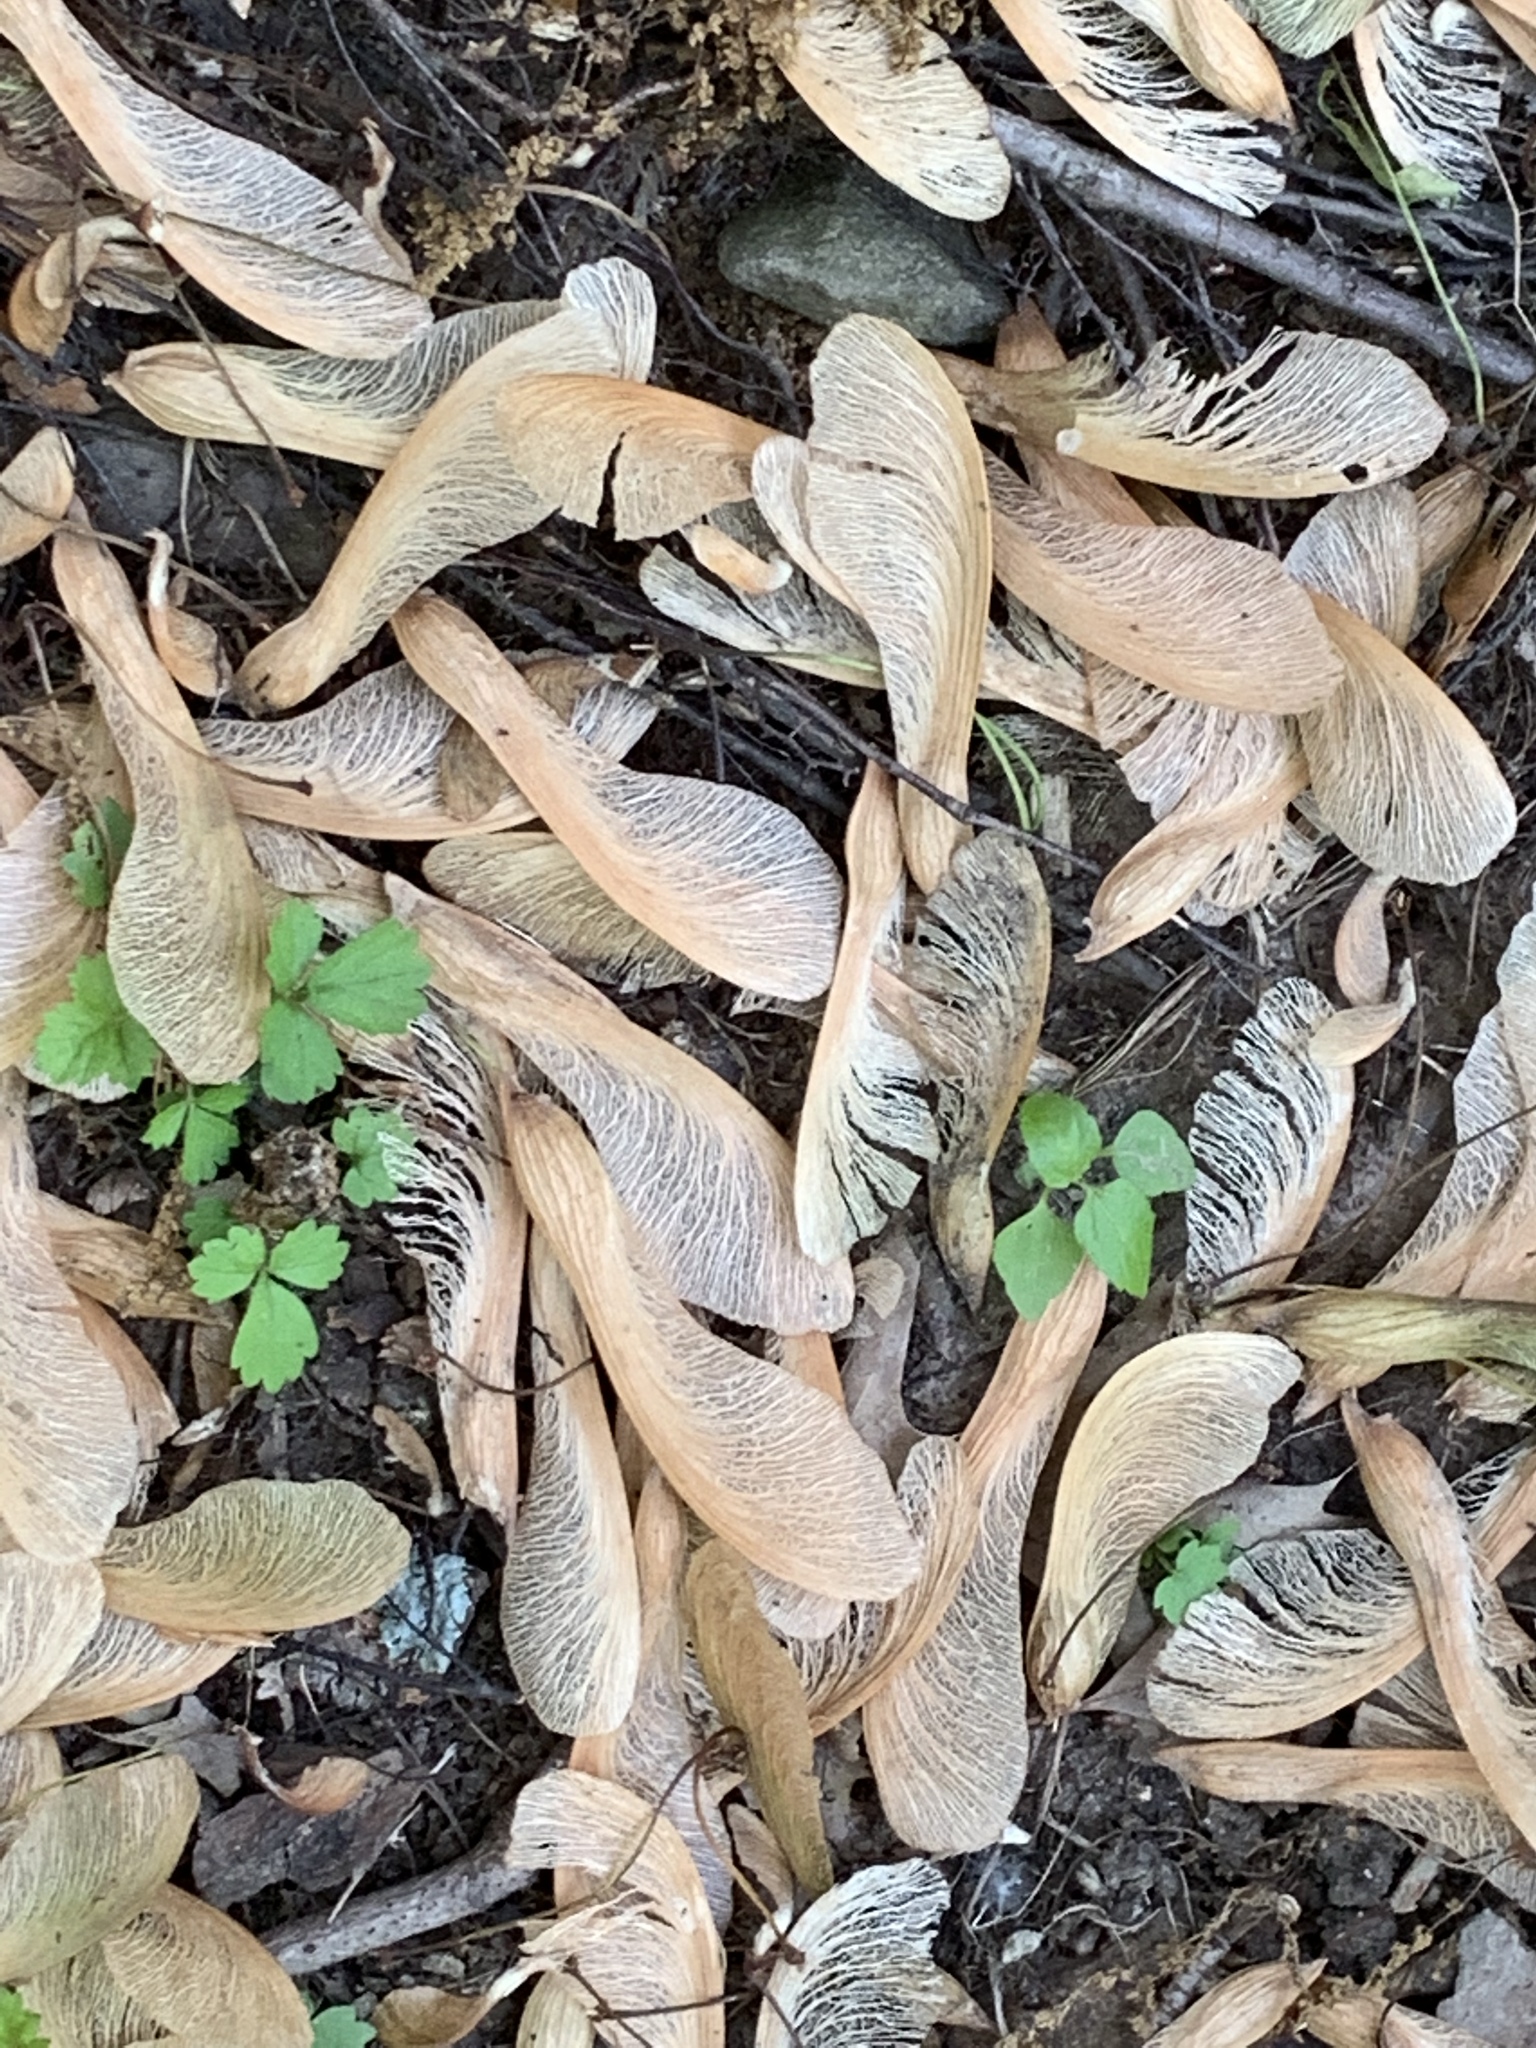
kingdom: Plantae
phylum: Tracheophyta
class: Magnoliopsida
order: Sapindales
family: Sapindaceae
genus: Acer
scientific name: Acer saccharinum
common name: Silver maple
